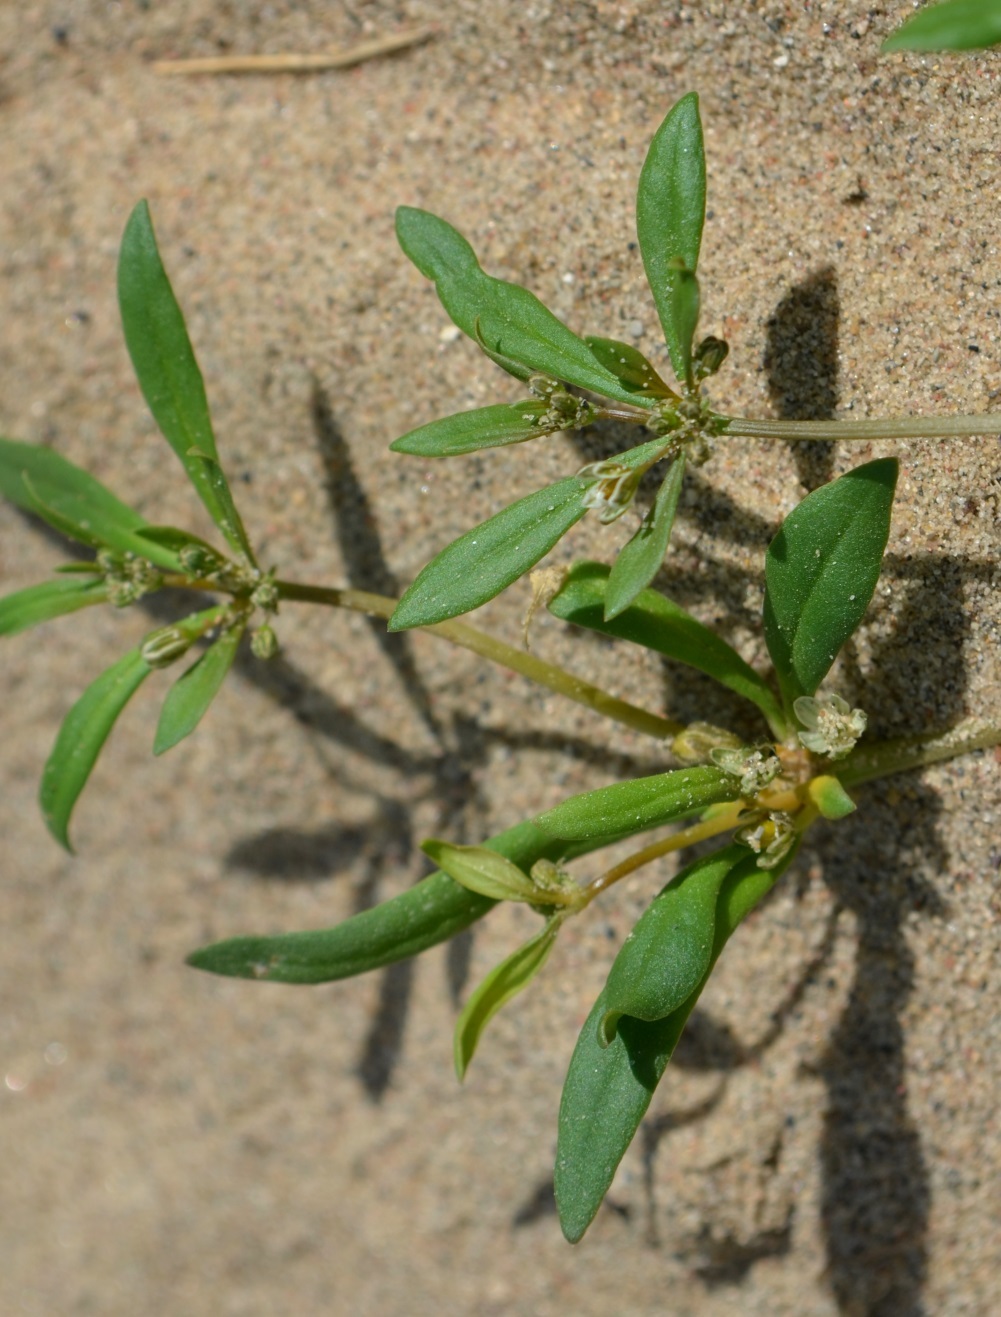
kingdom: Plantae
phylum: Tracheophyta
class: Magnoliopsida
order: Caryophyllales
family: Molluginaceae
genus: Mollugo
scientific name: Mollugo verticillata
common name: Green carpetweed
